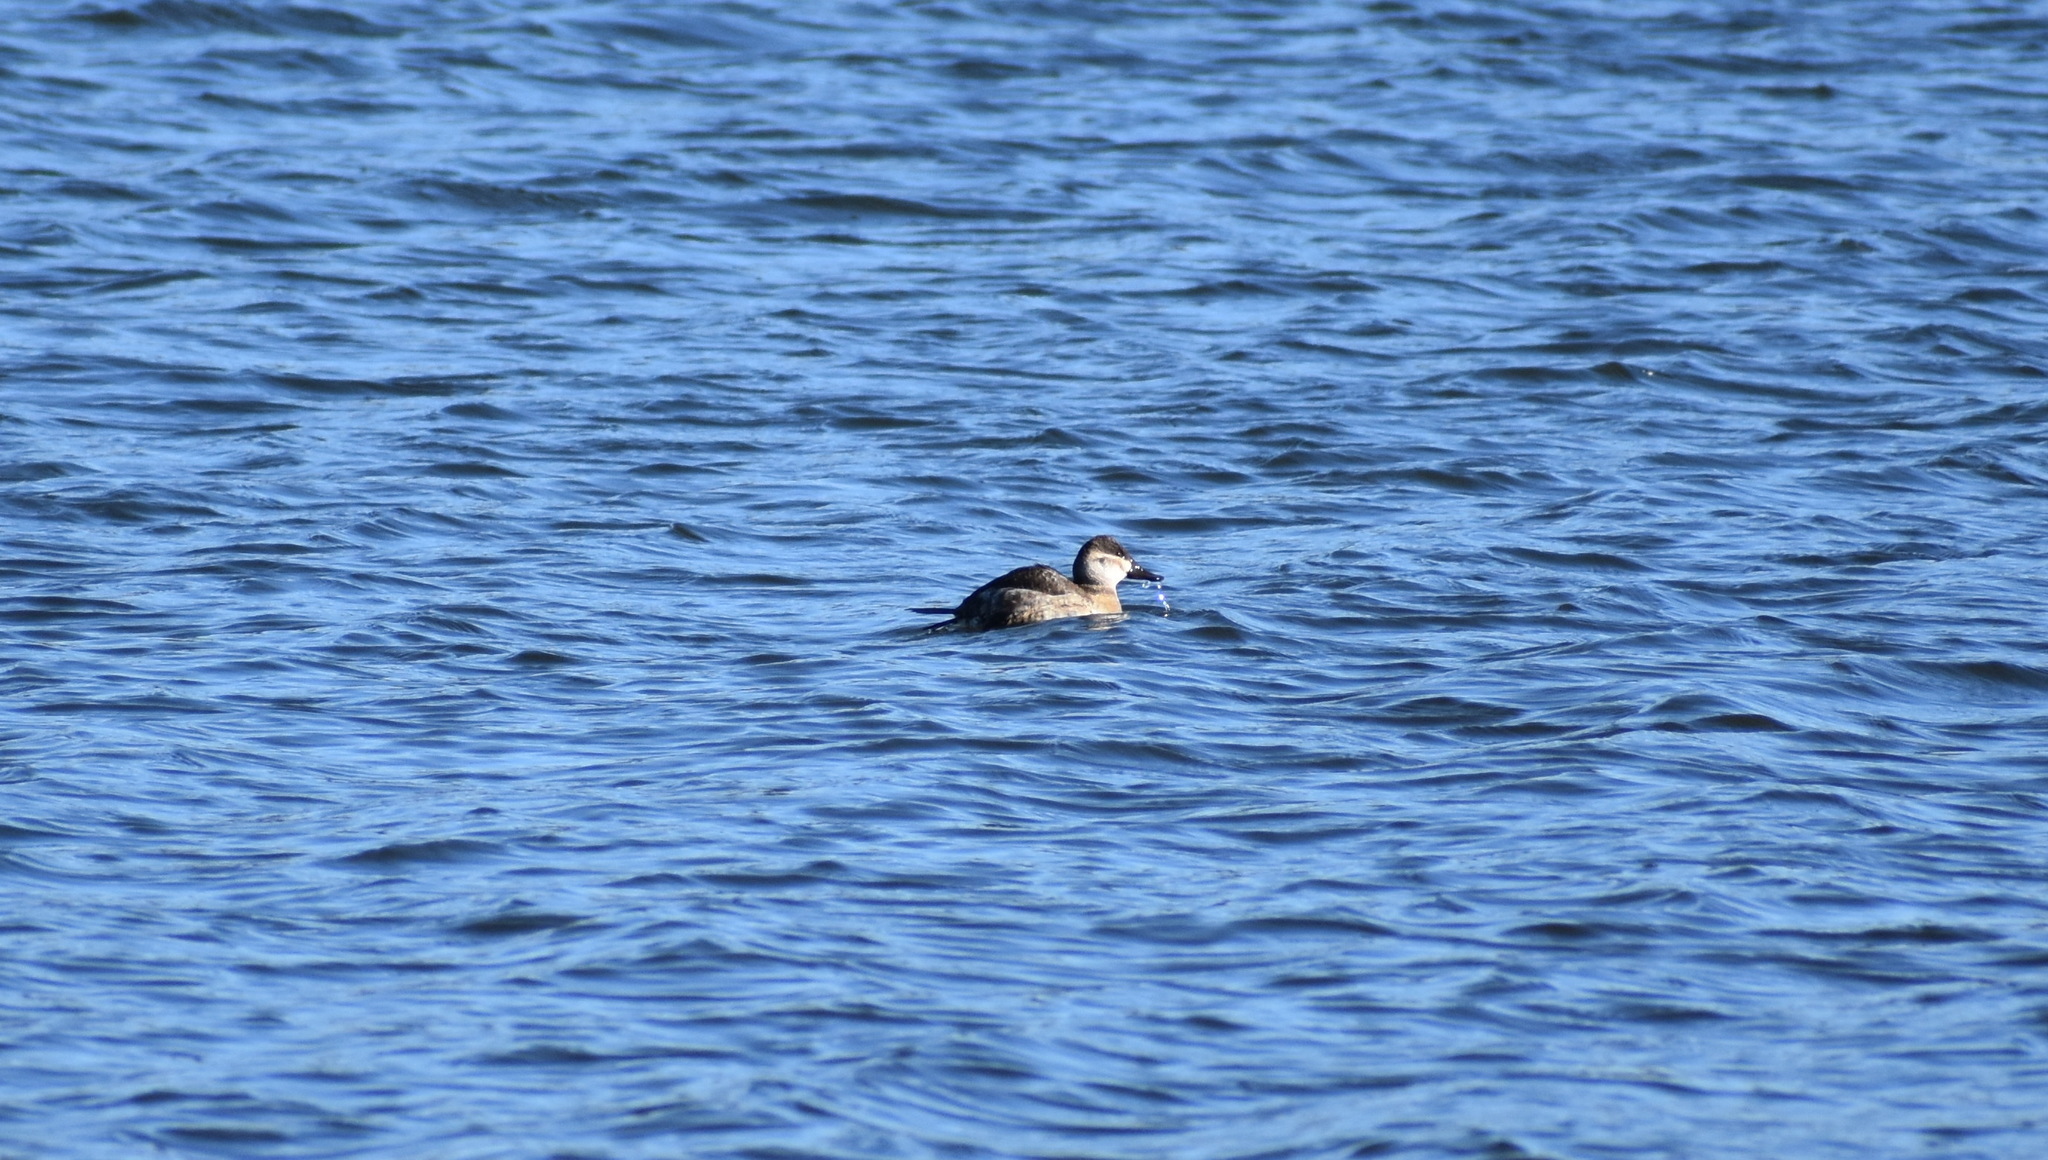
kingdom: Animalia
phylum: Chordata
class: Aves
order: Anseriformes
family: Anatidae
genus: Oxyura
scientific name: Oxyura jamaicensis
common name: Ruddy duck
